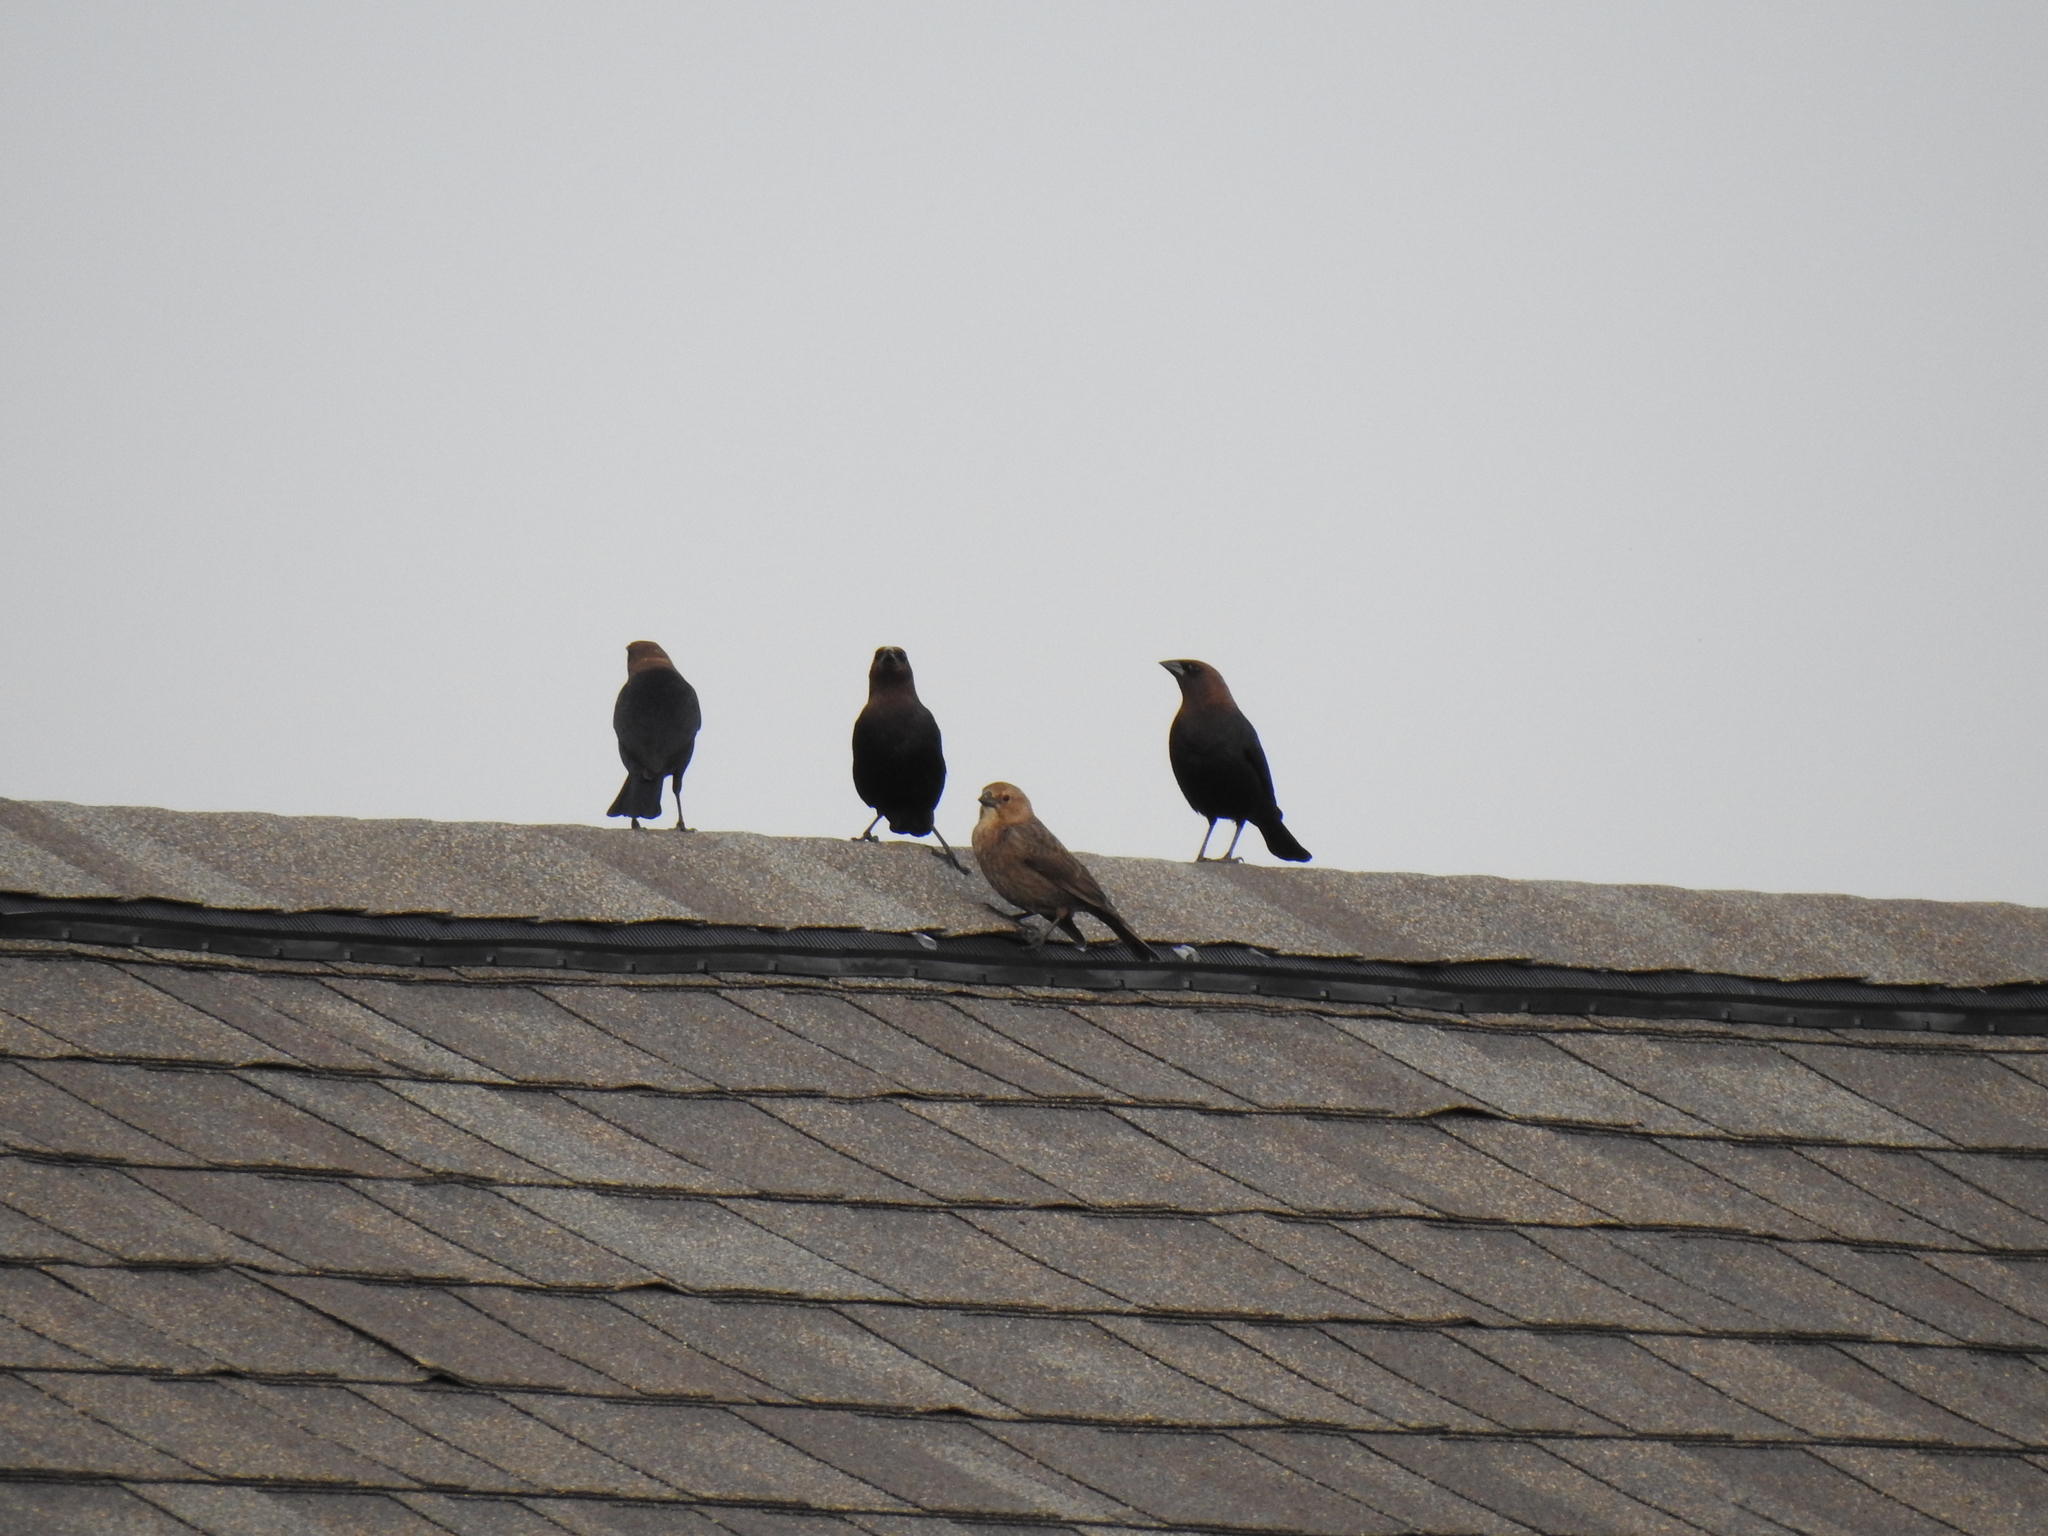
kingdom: Animalia
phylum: Chordata
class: Aves
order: Passeriformes
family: Icteridae
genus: Molothrus
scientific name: Molothrus ater
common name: Brown-headed cowbird
